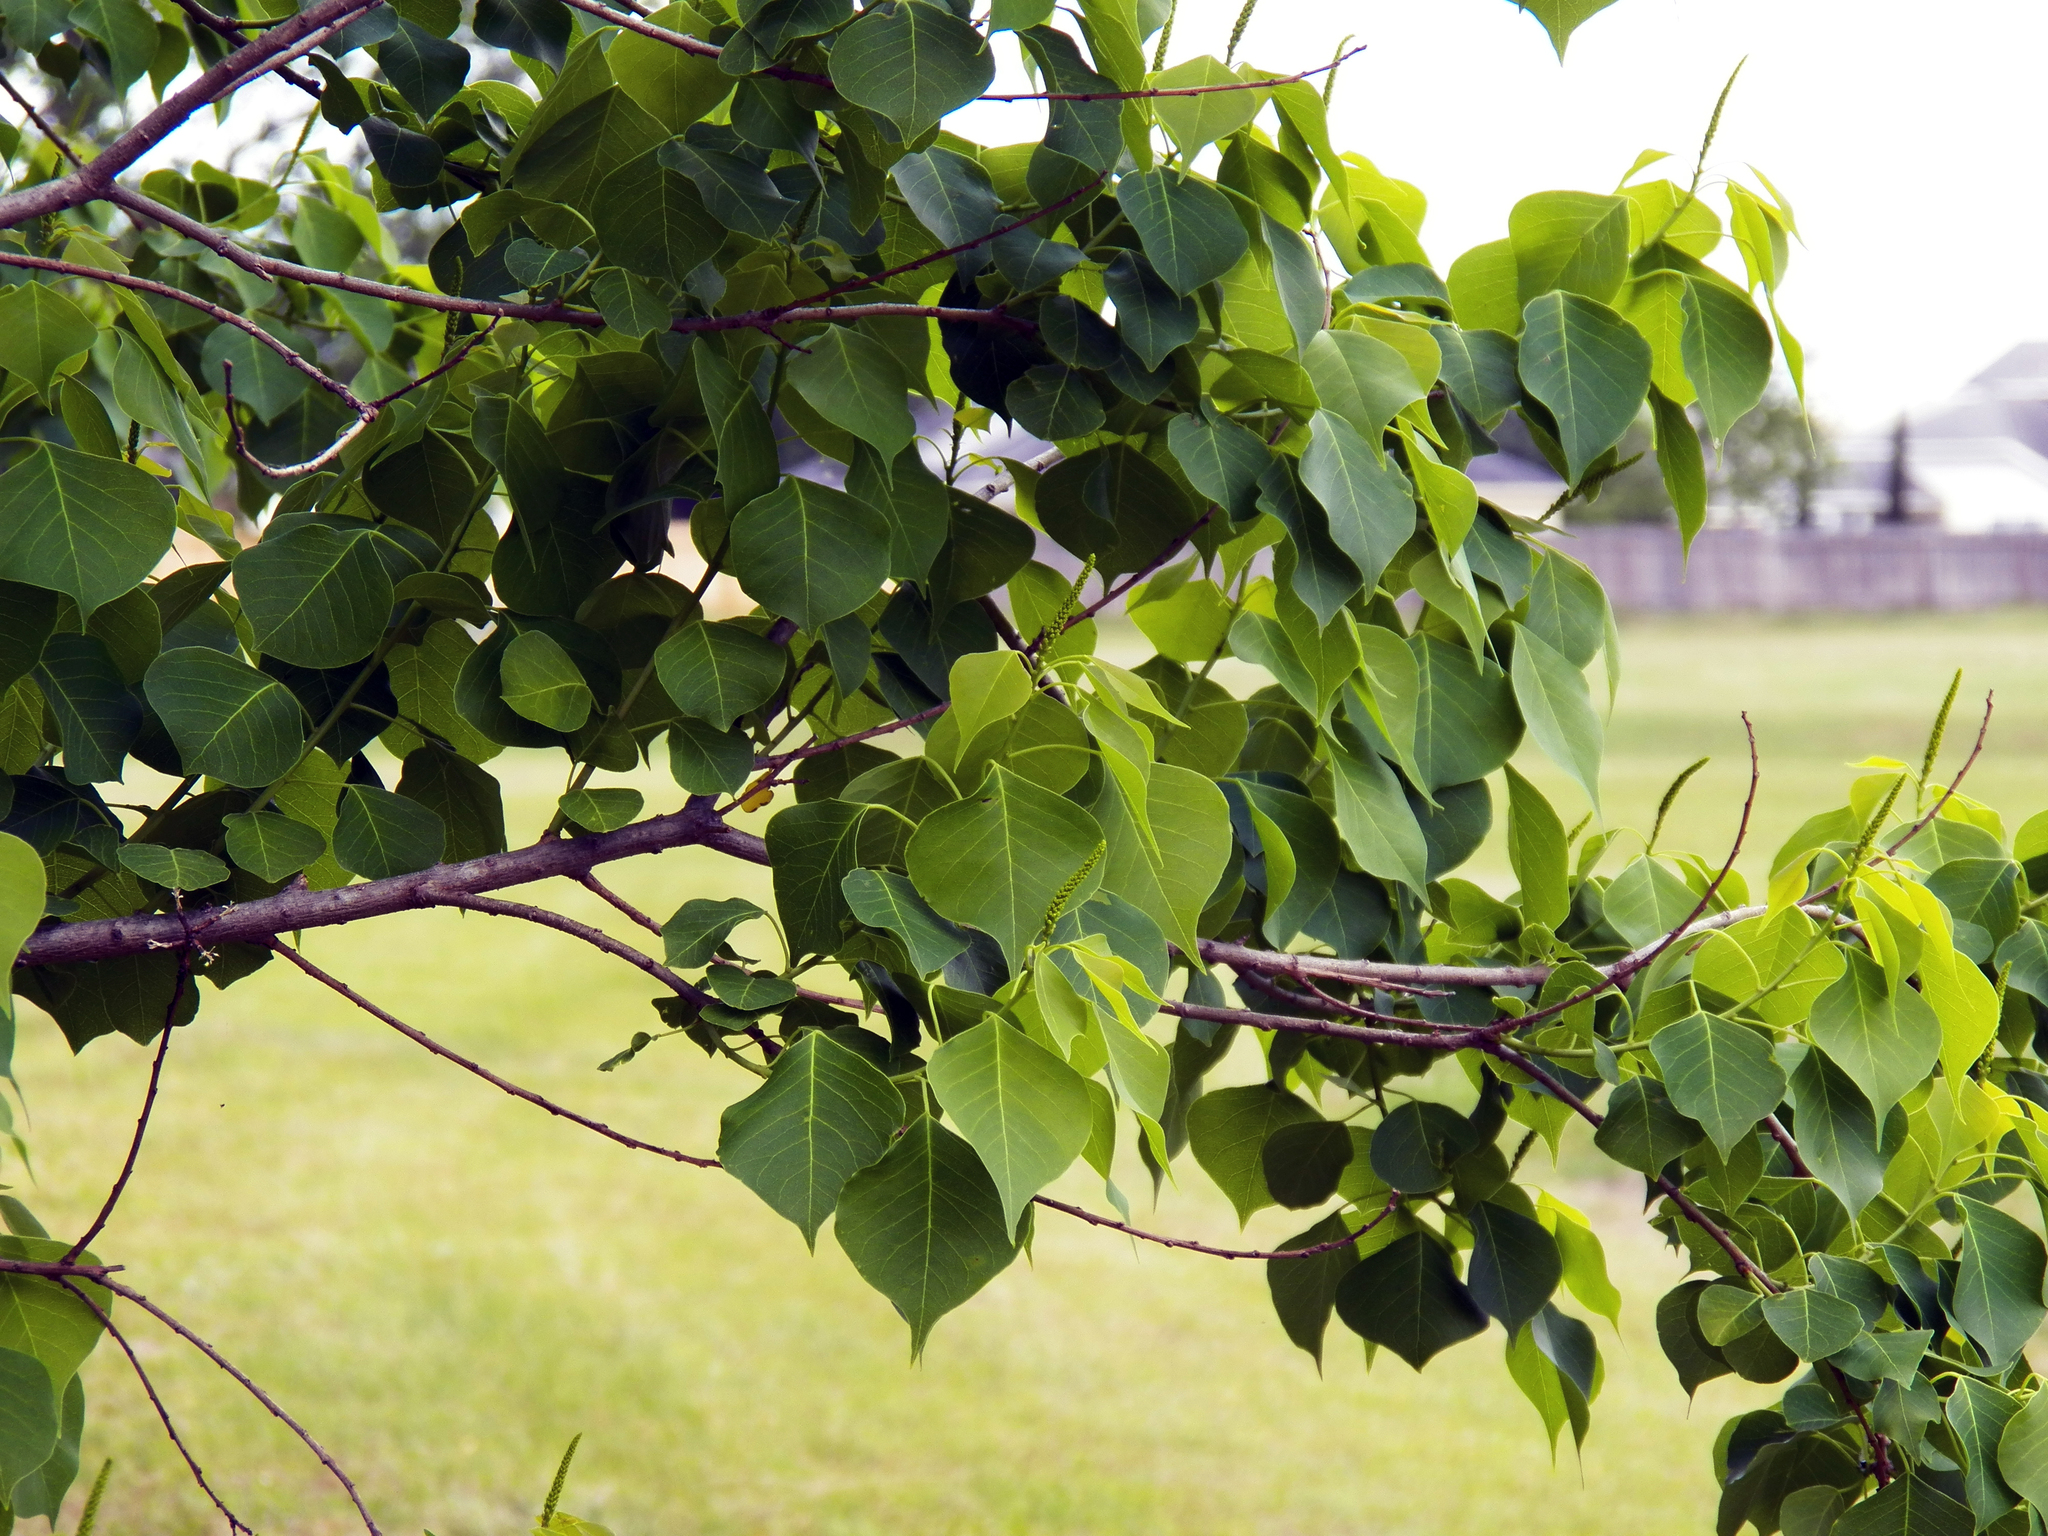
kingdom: Plantae
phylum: Tracheophyta
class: Magnoliopsida
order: Malpighiales
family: Euphorbiaceae
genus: Triadica
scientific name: Triadica sebifera
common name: Chinese tallow
